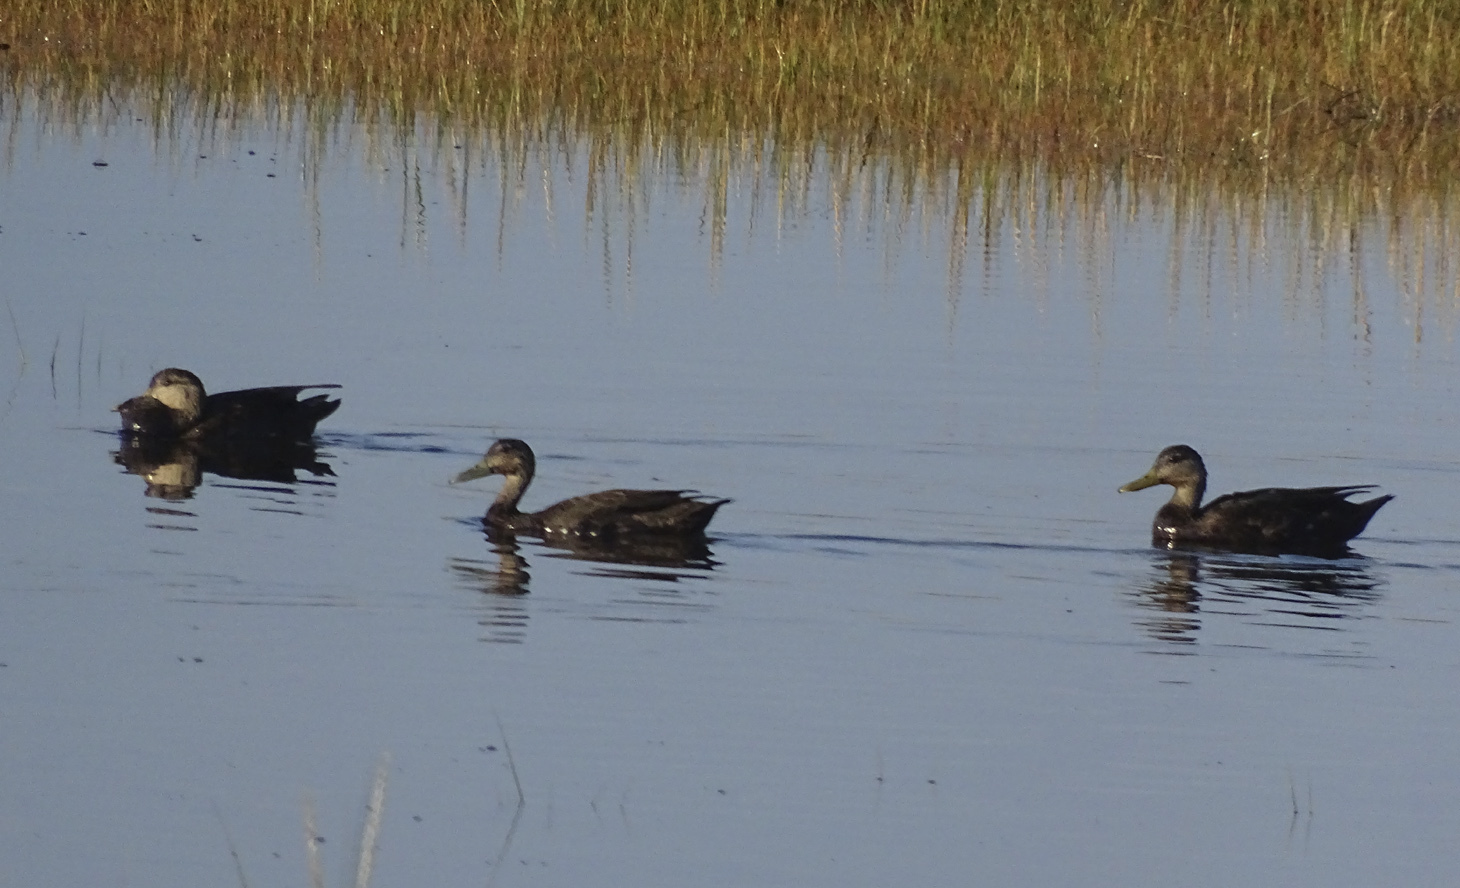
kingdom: Animalia
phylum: Chordata
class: Aves
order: Anseriformes
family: Anatidae
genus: Anas
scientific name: Anas rubripes
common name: American black duck
